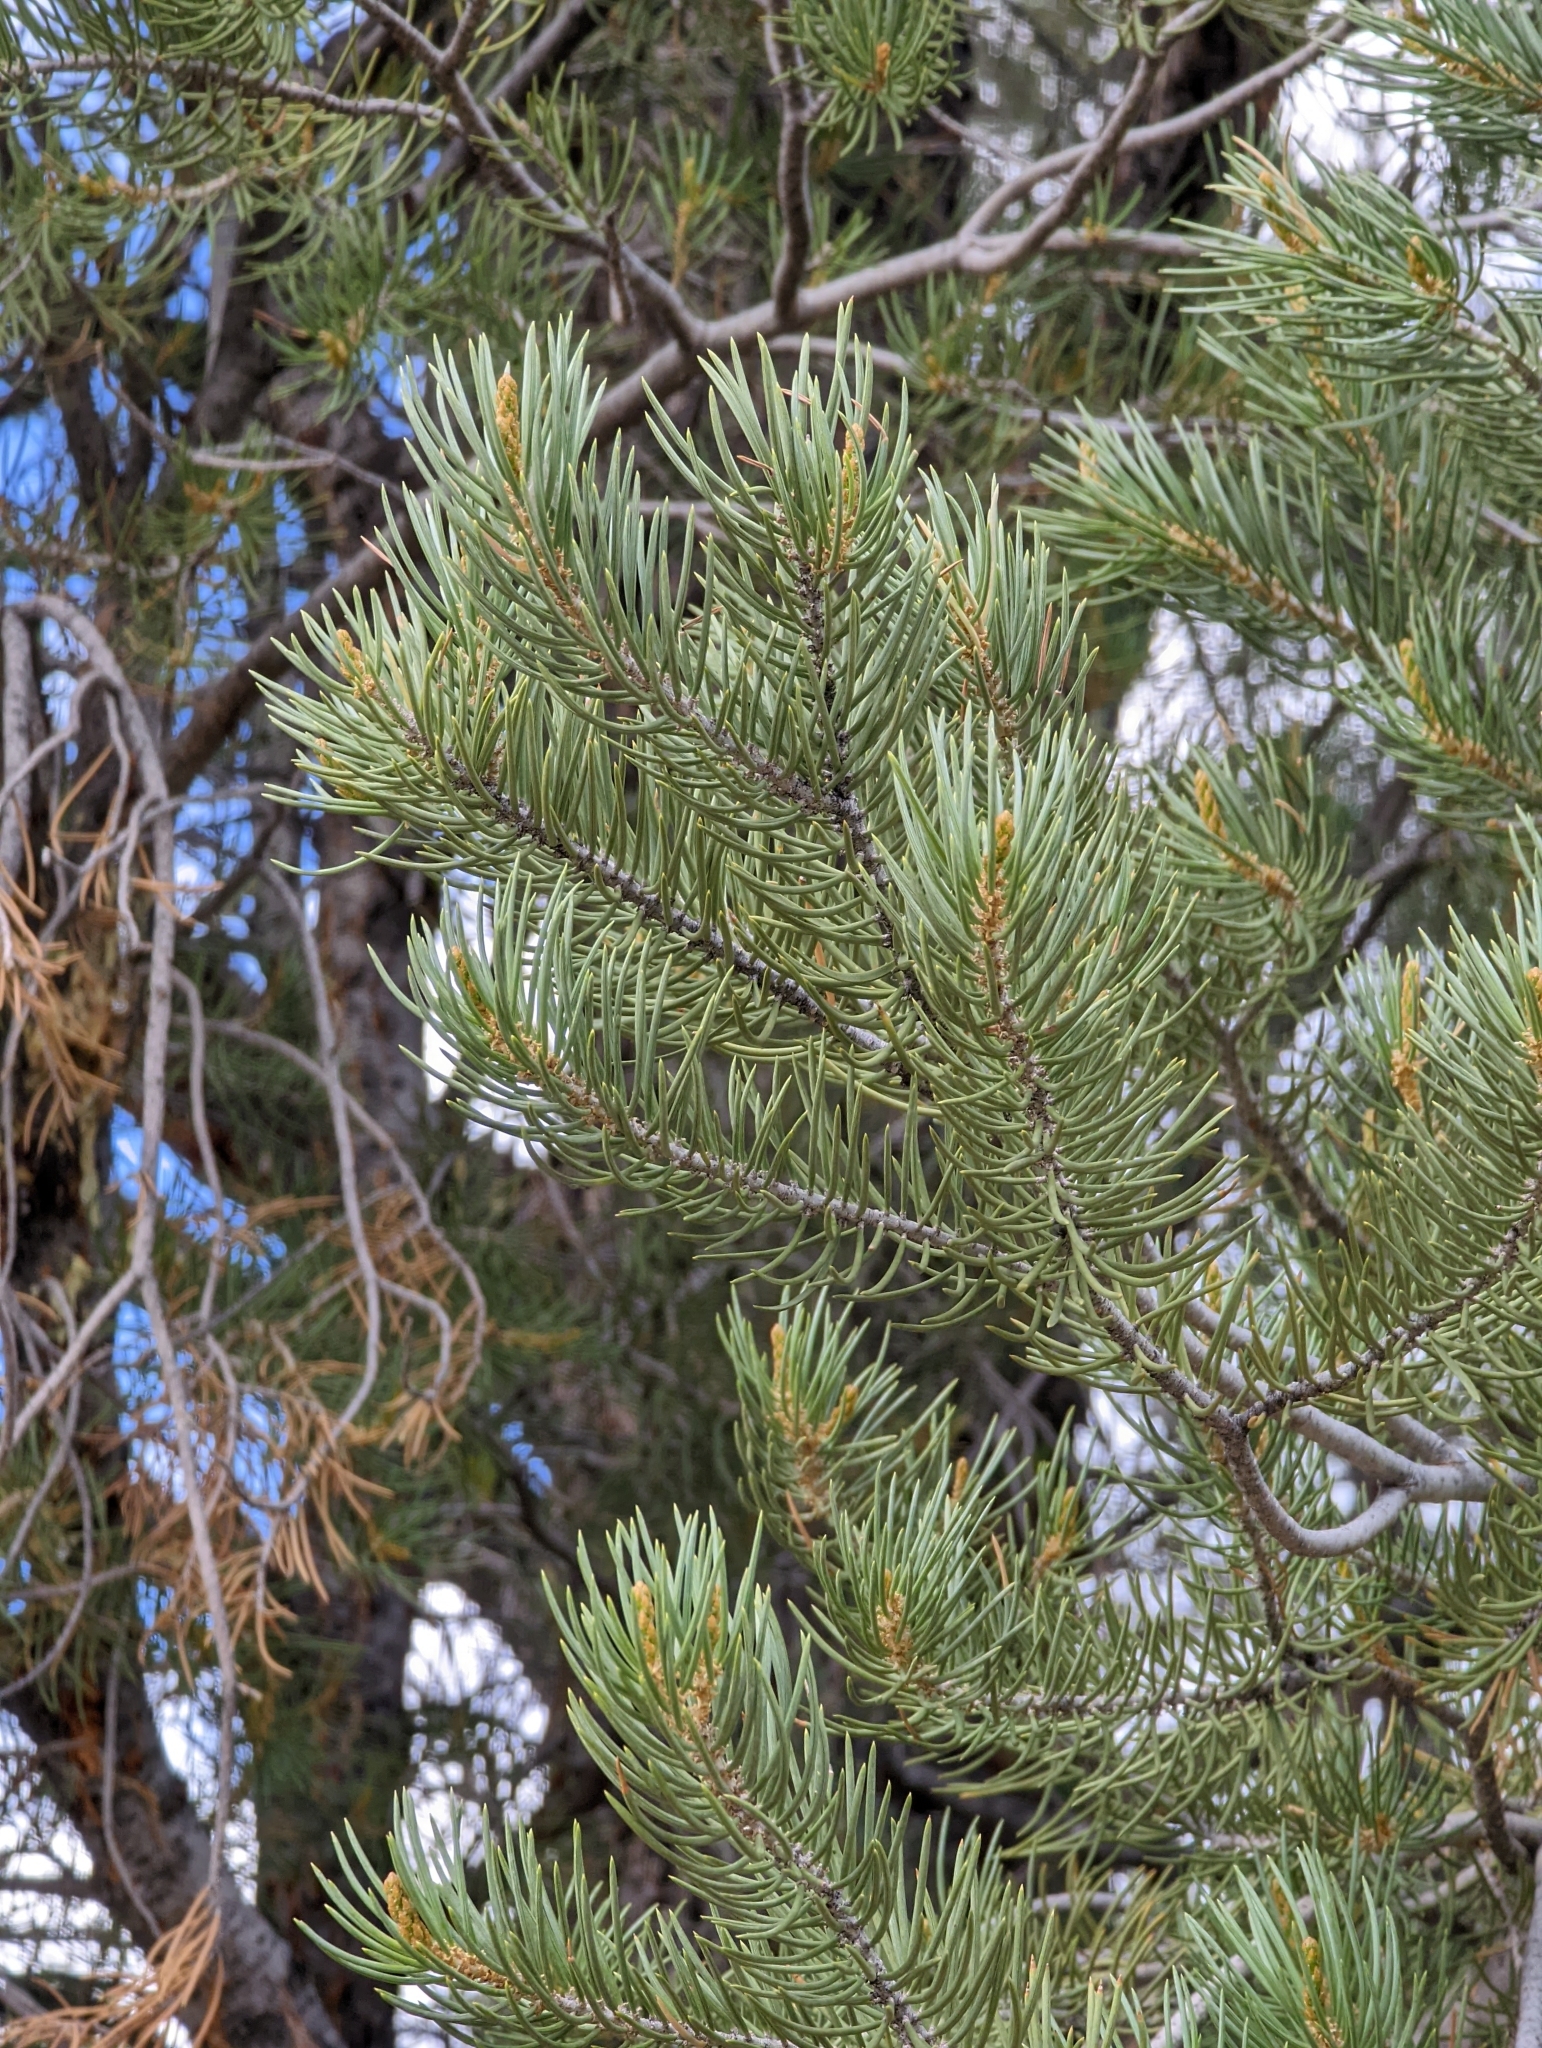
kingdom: Plantae
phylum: Tracheophyta
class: Pinopsida
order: Pinales
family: Pinaceae
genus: Pinus
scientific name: Pinus monophylla
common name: One-leaved nut pine
